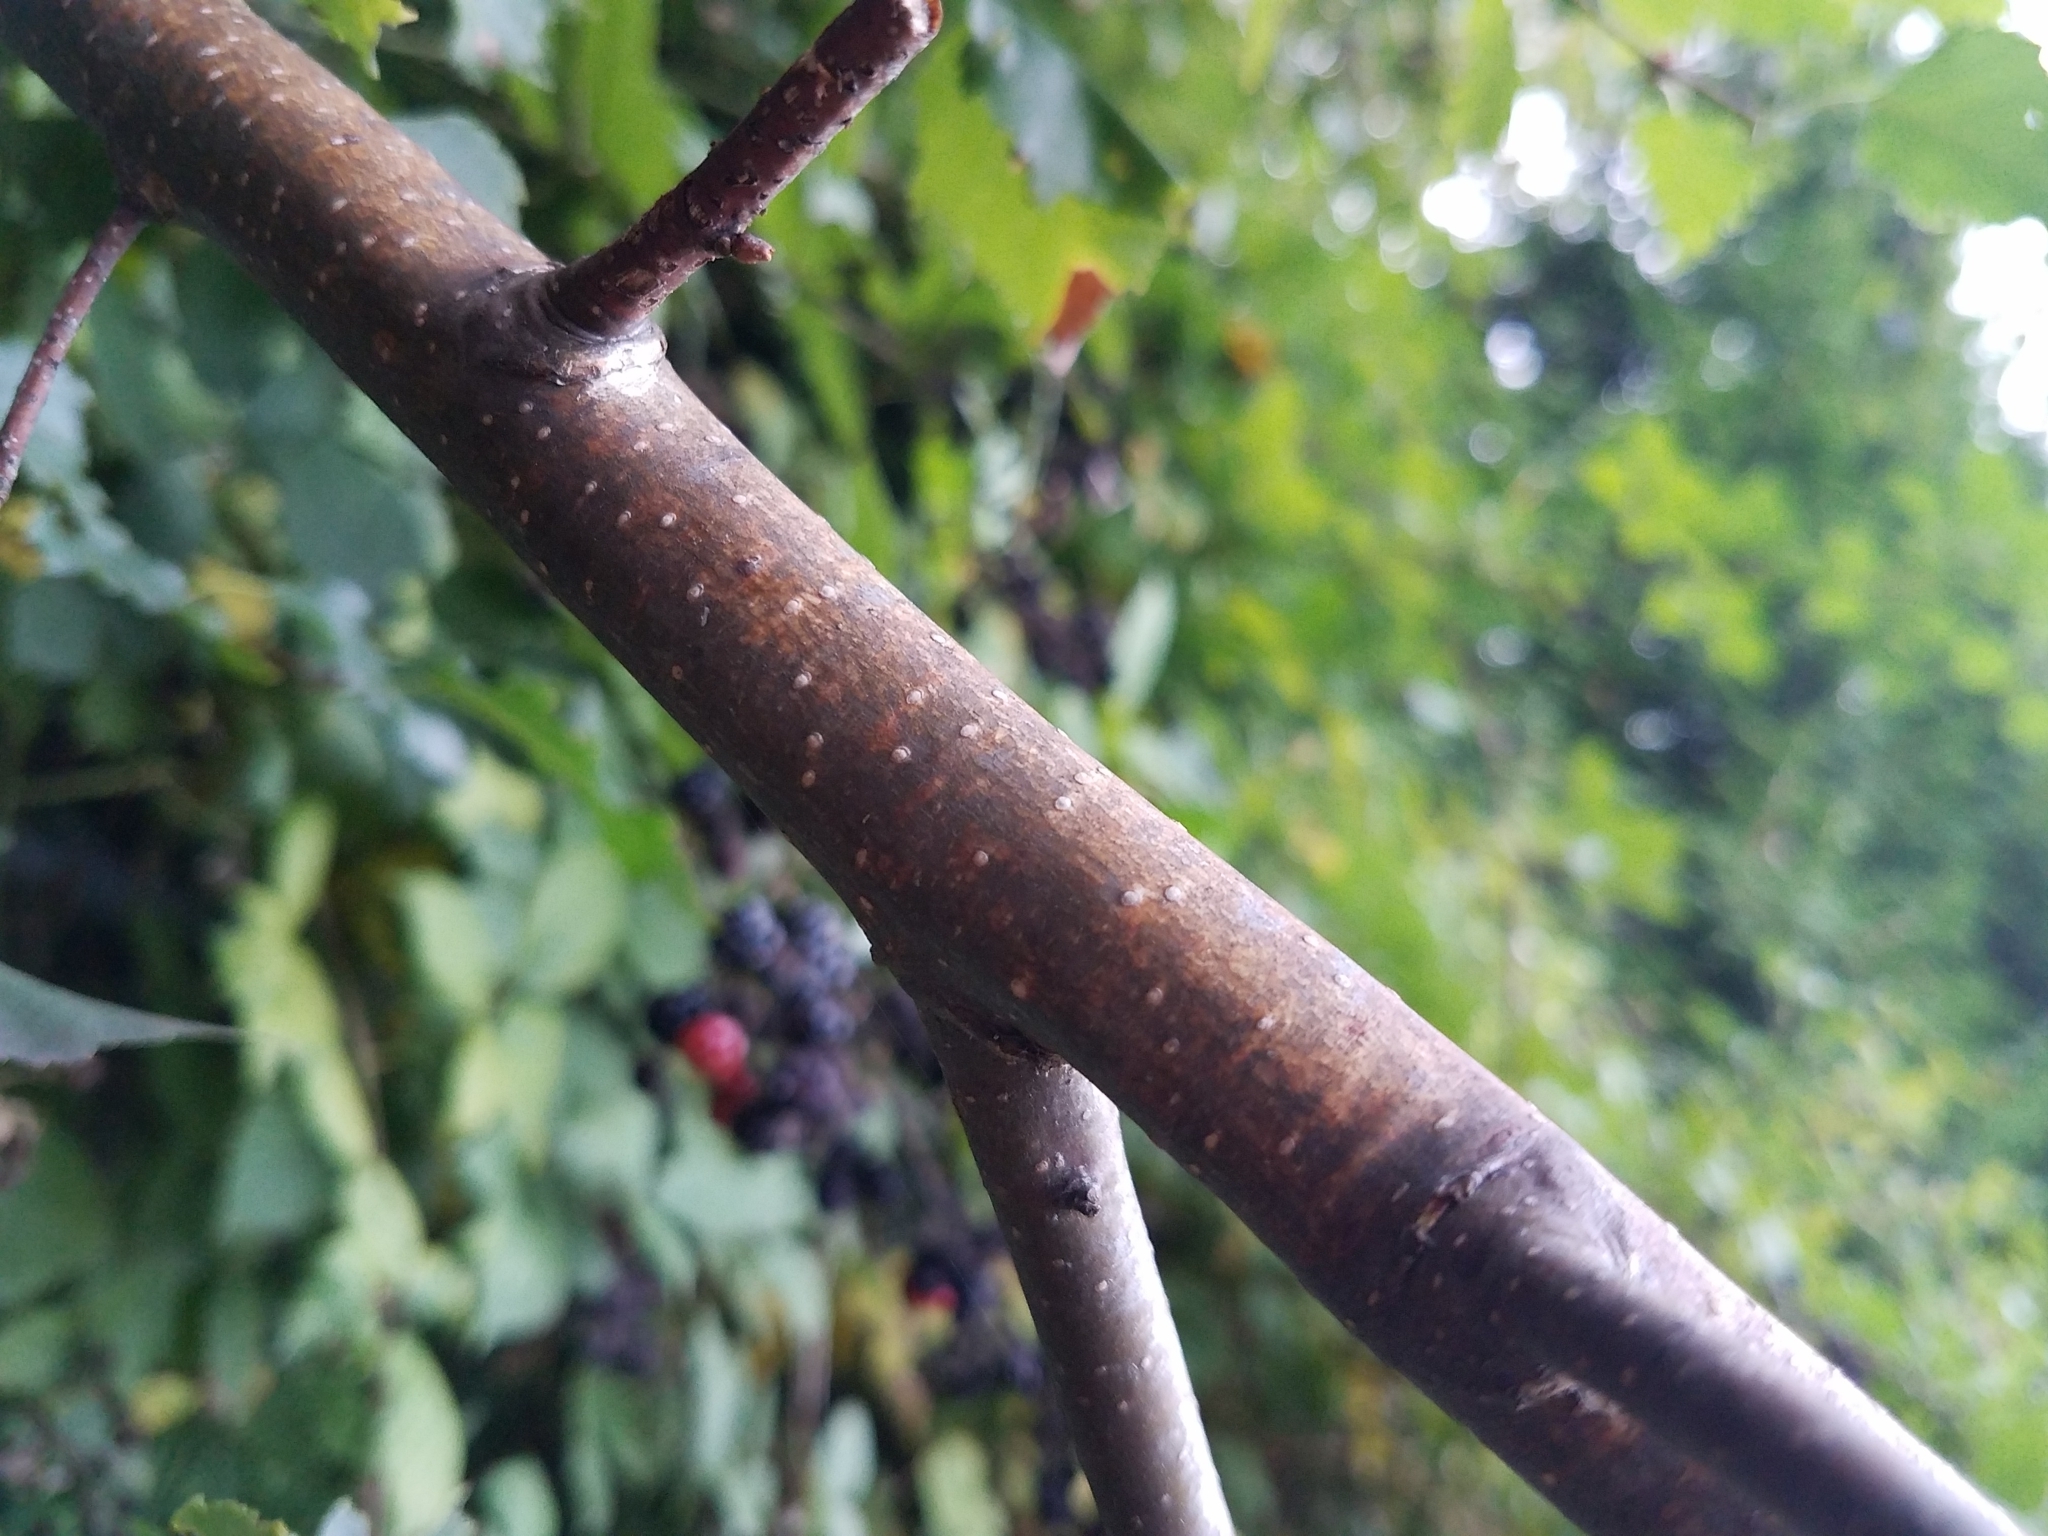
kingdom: Plantae
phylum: Tracheophyta
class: Magnoliopsida
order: Fagales
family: Betulaceae
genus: Betula
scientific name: Betula pendula
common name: Silver birch
